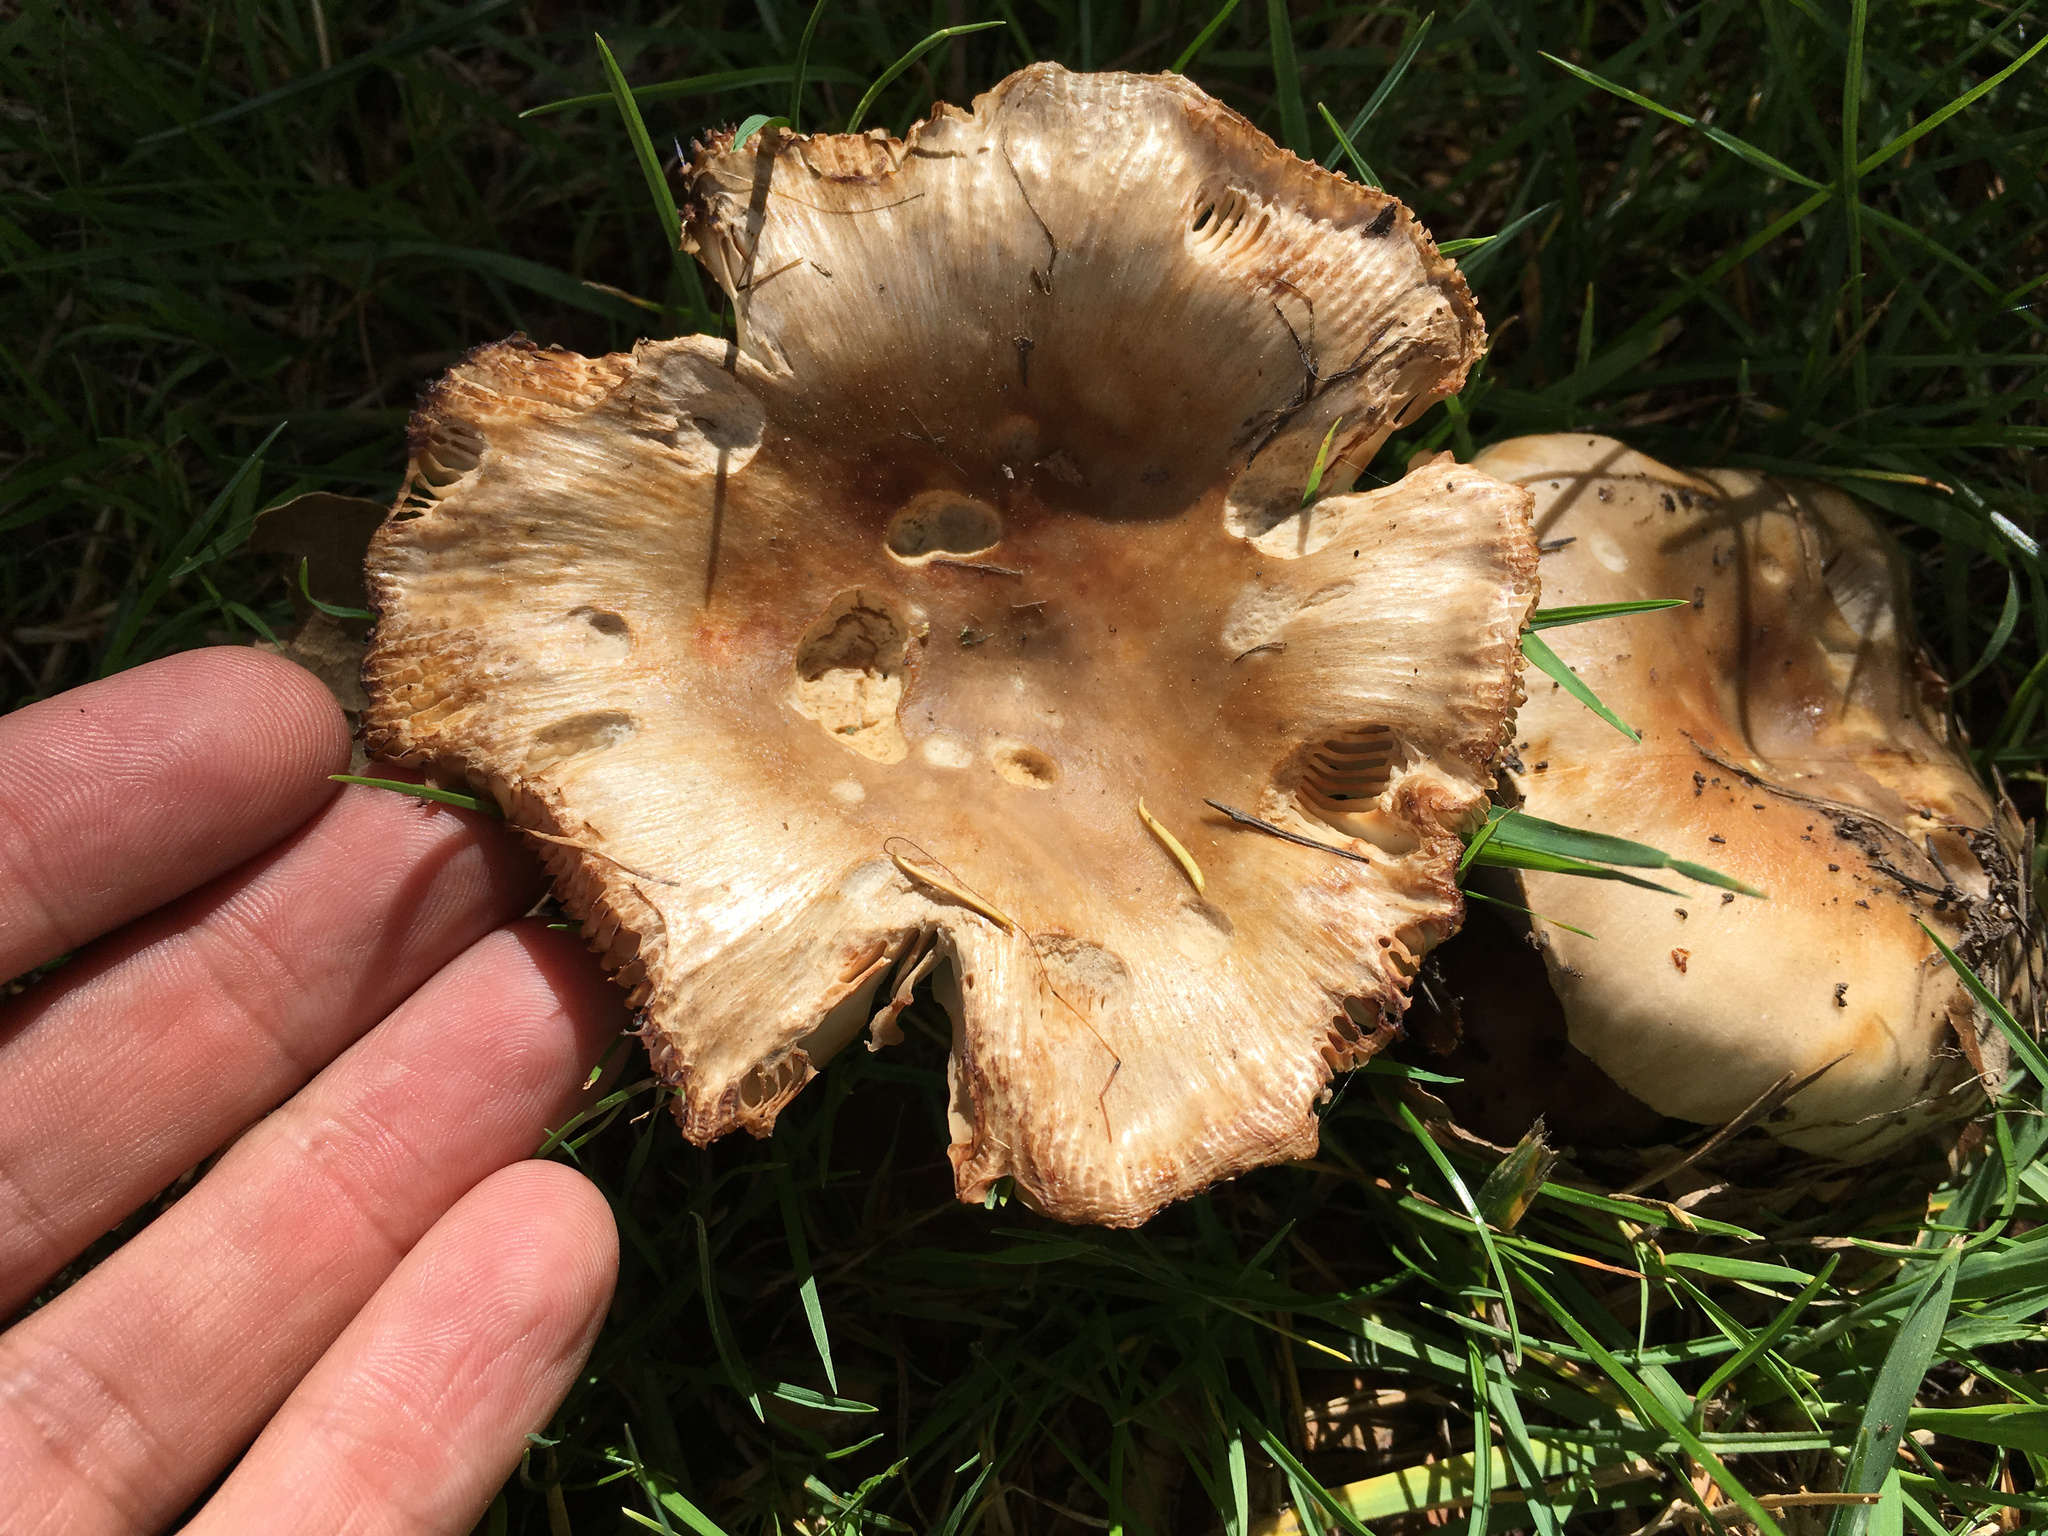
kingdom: Fungi
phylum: Basidiomycota
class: Agaricomycetes
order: Russulales
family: Russulaceae
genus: Russula
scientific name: Russula amoenolens
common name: Camembert brittlegill
